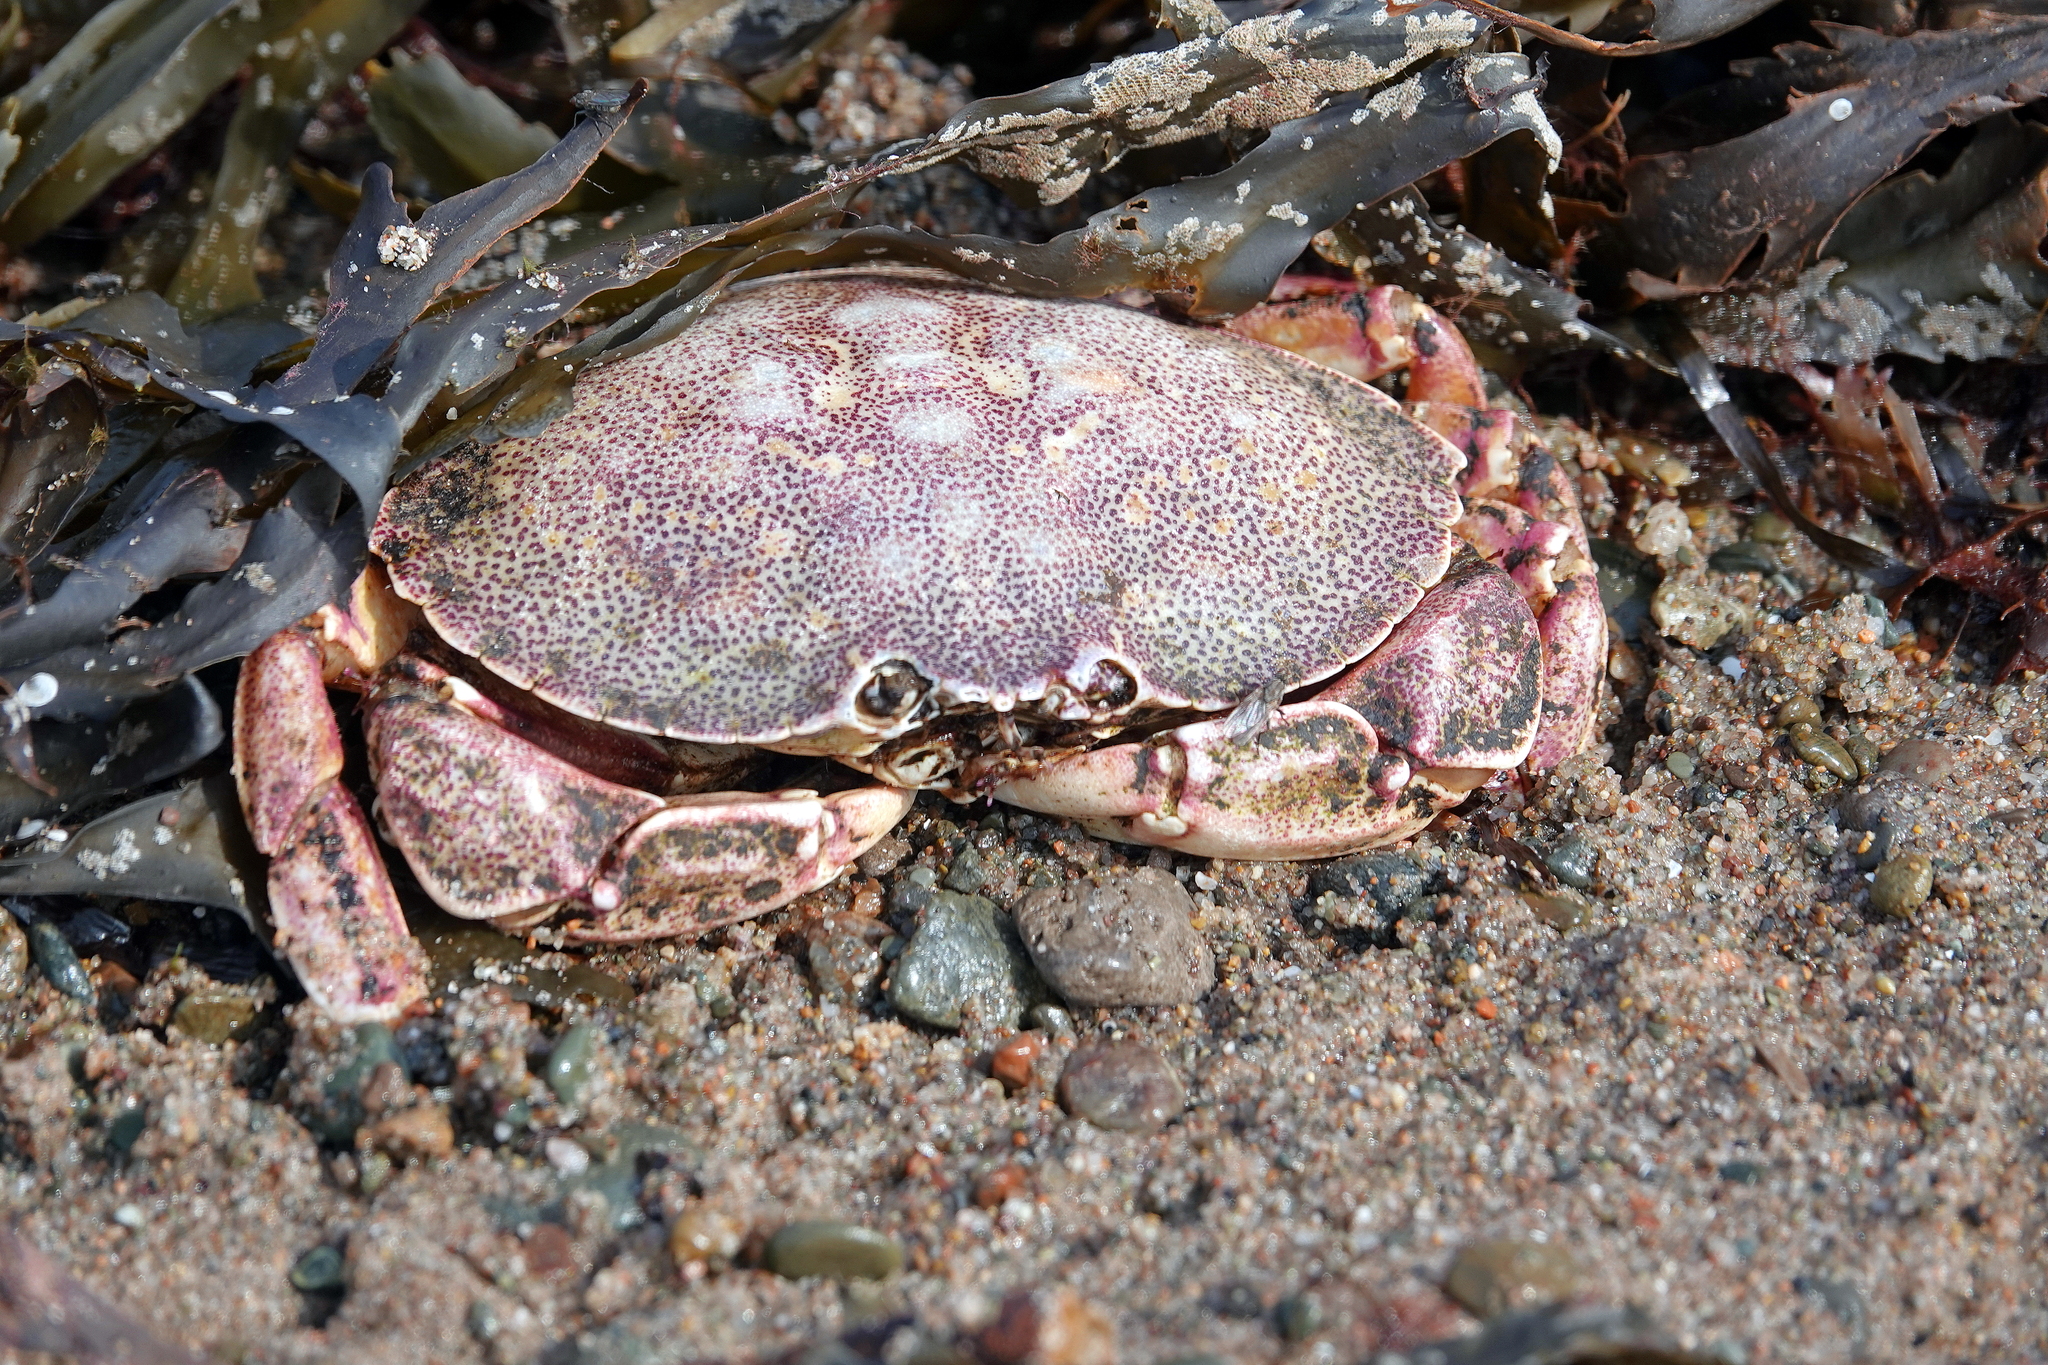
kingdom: Animalia
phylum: Arthropoda
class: Malacostraca
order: Decapoda
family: Cancridae
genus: Cancer
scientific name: Cancer irroratus
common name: Atlantic rock crab
